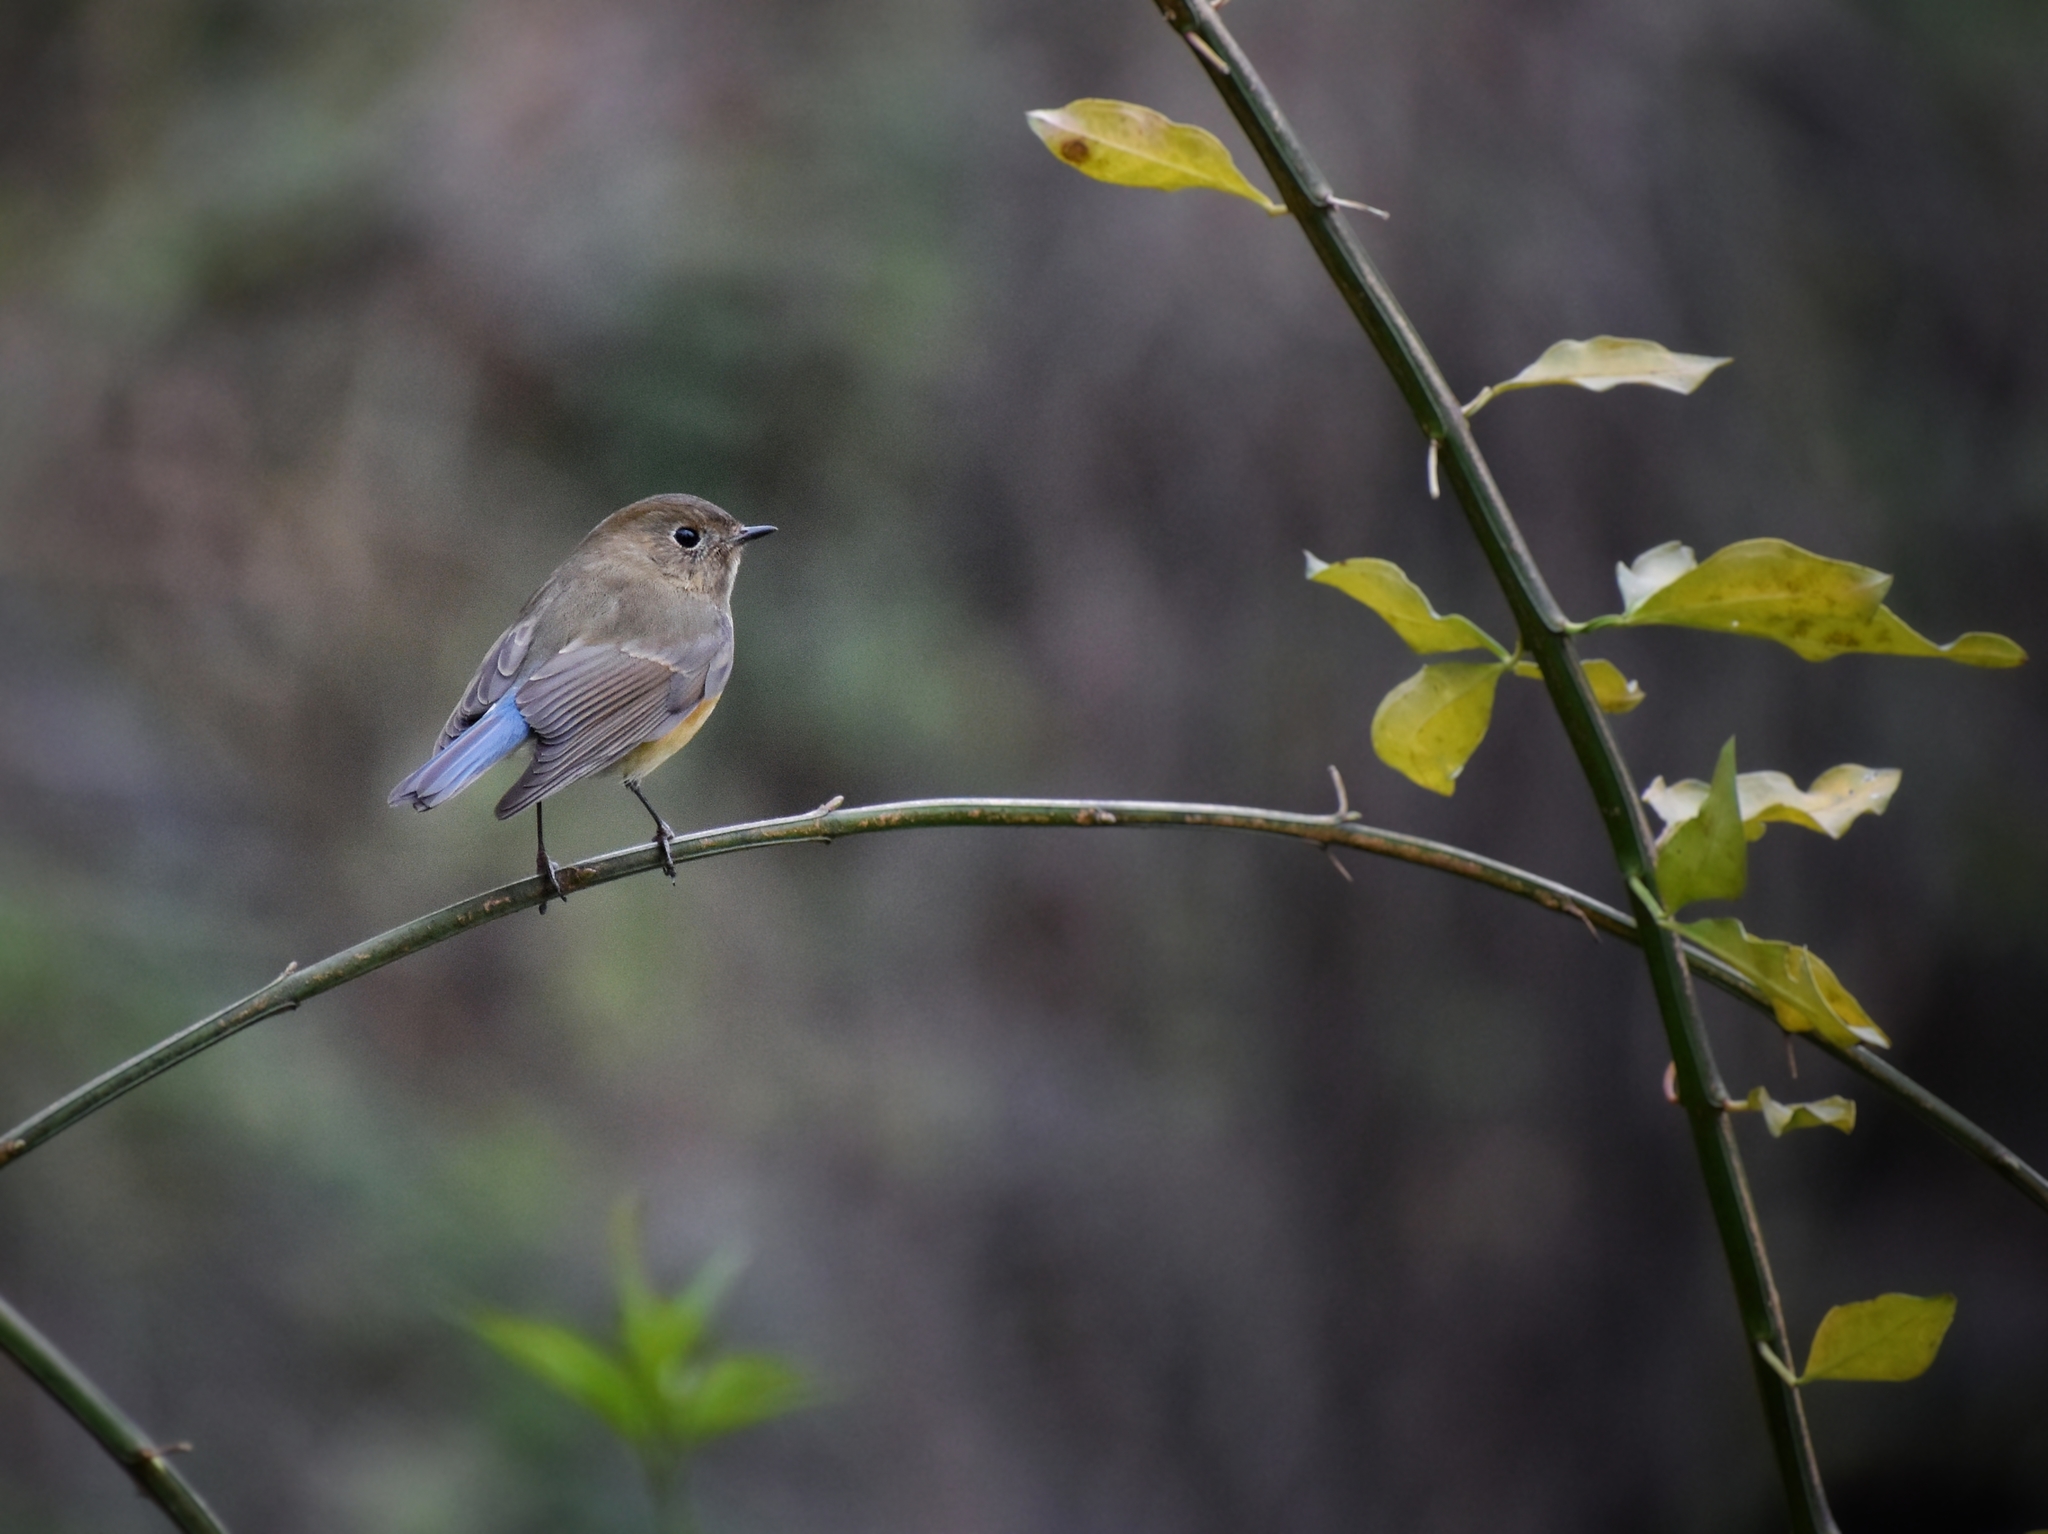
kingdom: Animalia
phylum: Chordata
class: Aves
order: Passeriformes
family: Muscicapidae
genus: Tarsiger
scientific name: Tarsiger cyanurus
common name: Red-flanked bluetail
